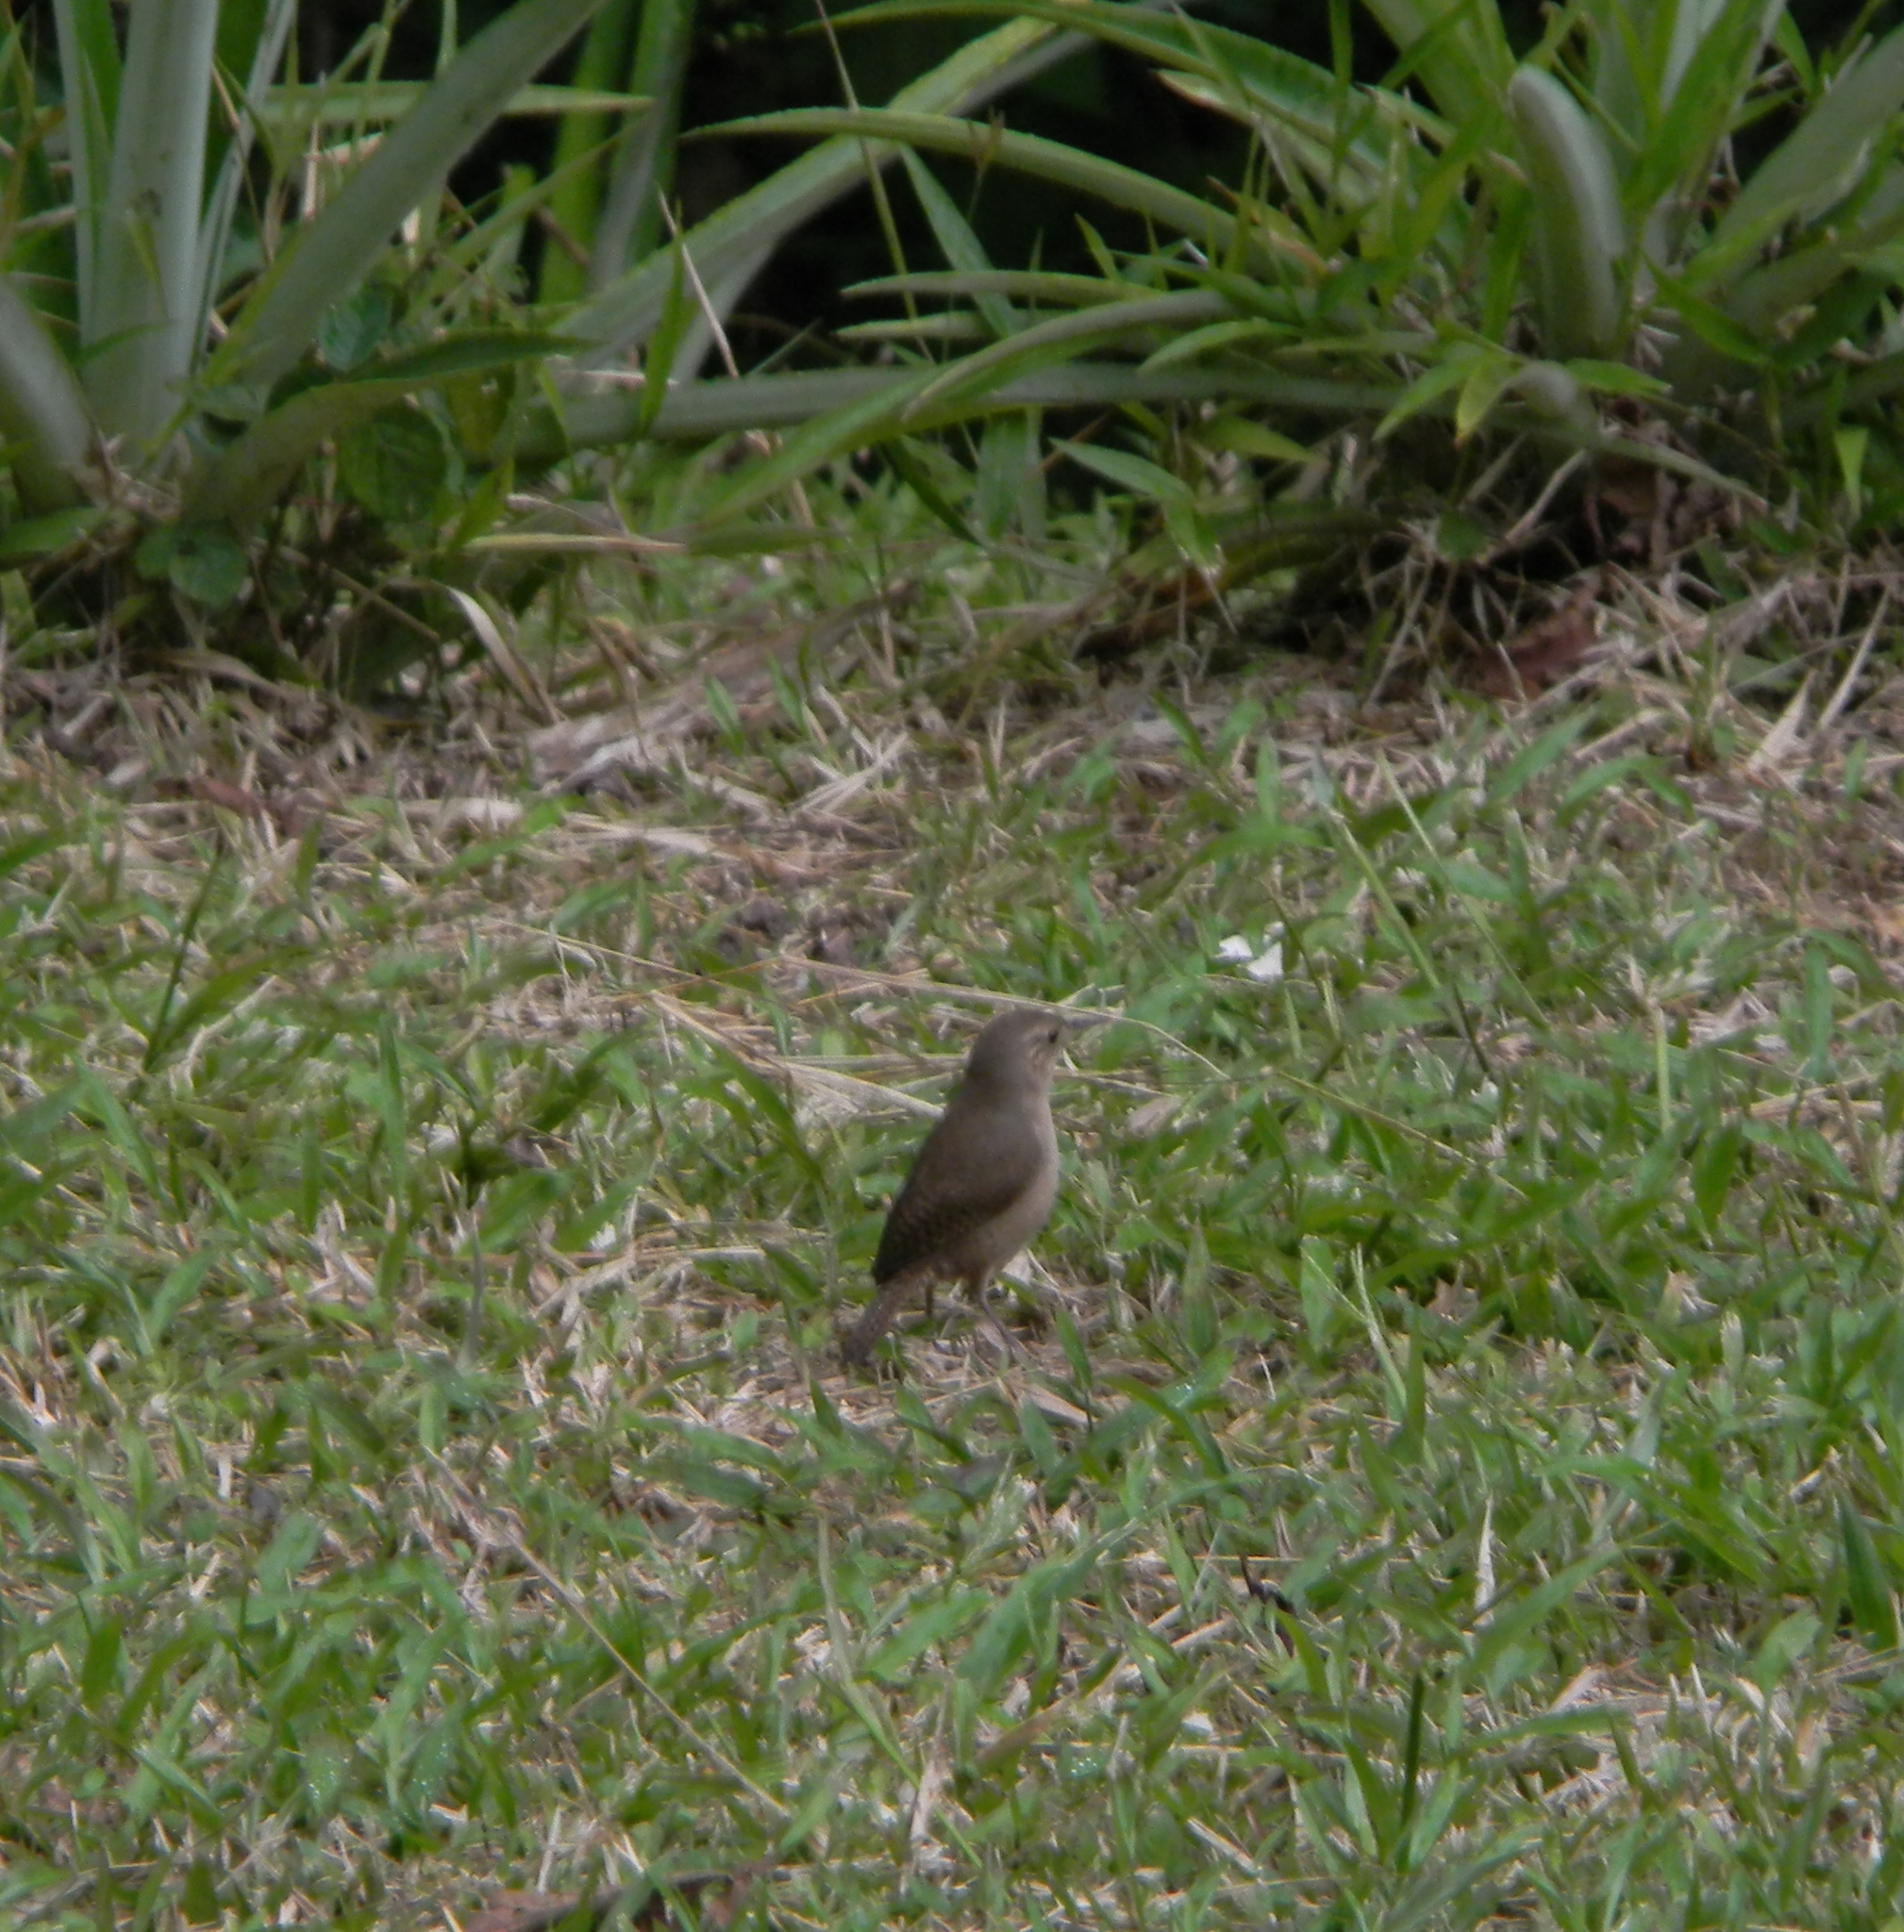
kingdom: Animalia
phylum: Chordata
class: Aves
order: Passeriformes
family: Troglodytidae
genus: Troglodytes
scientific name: Troglodytes aedon
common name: House wren
